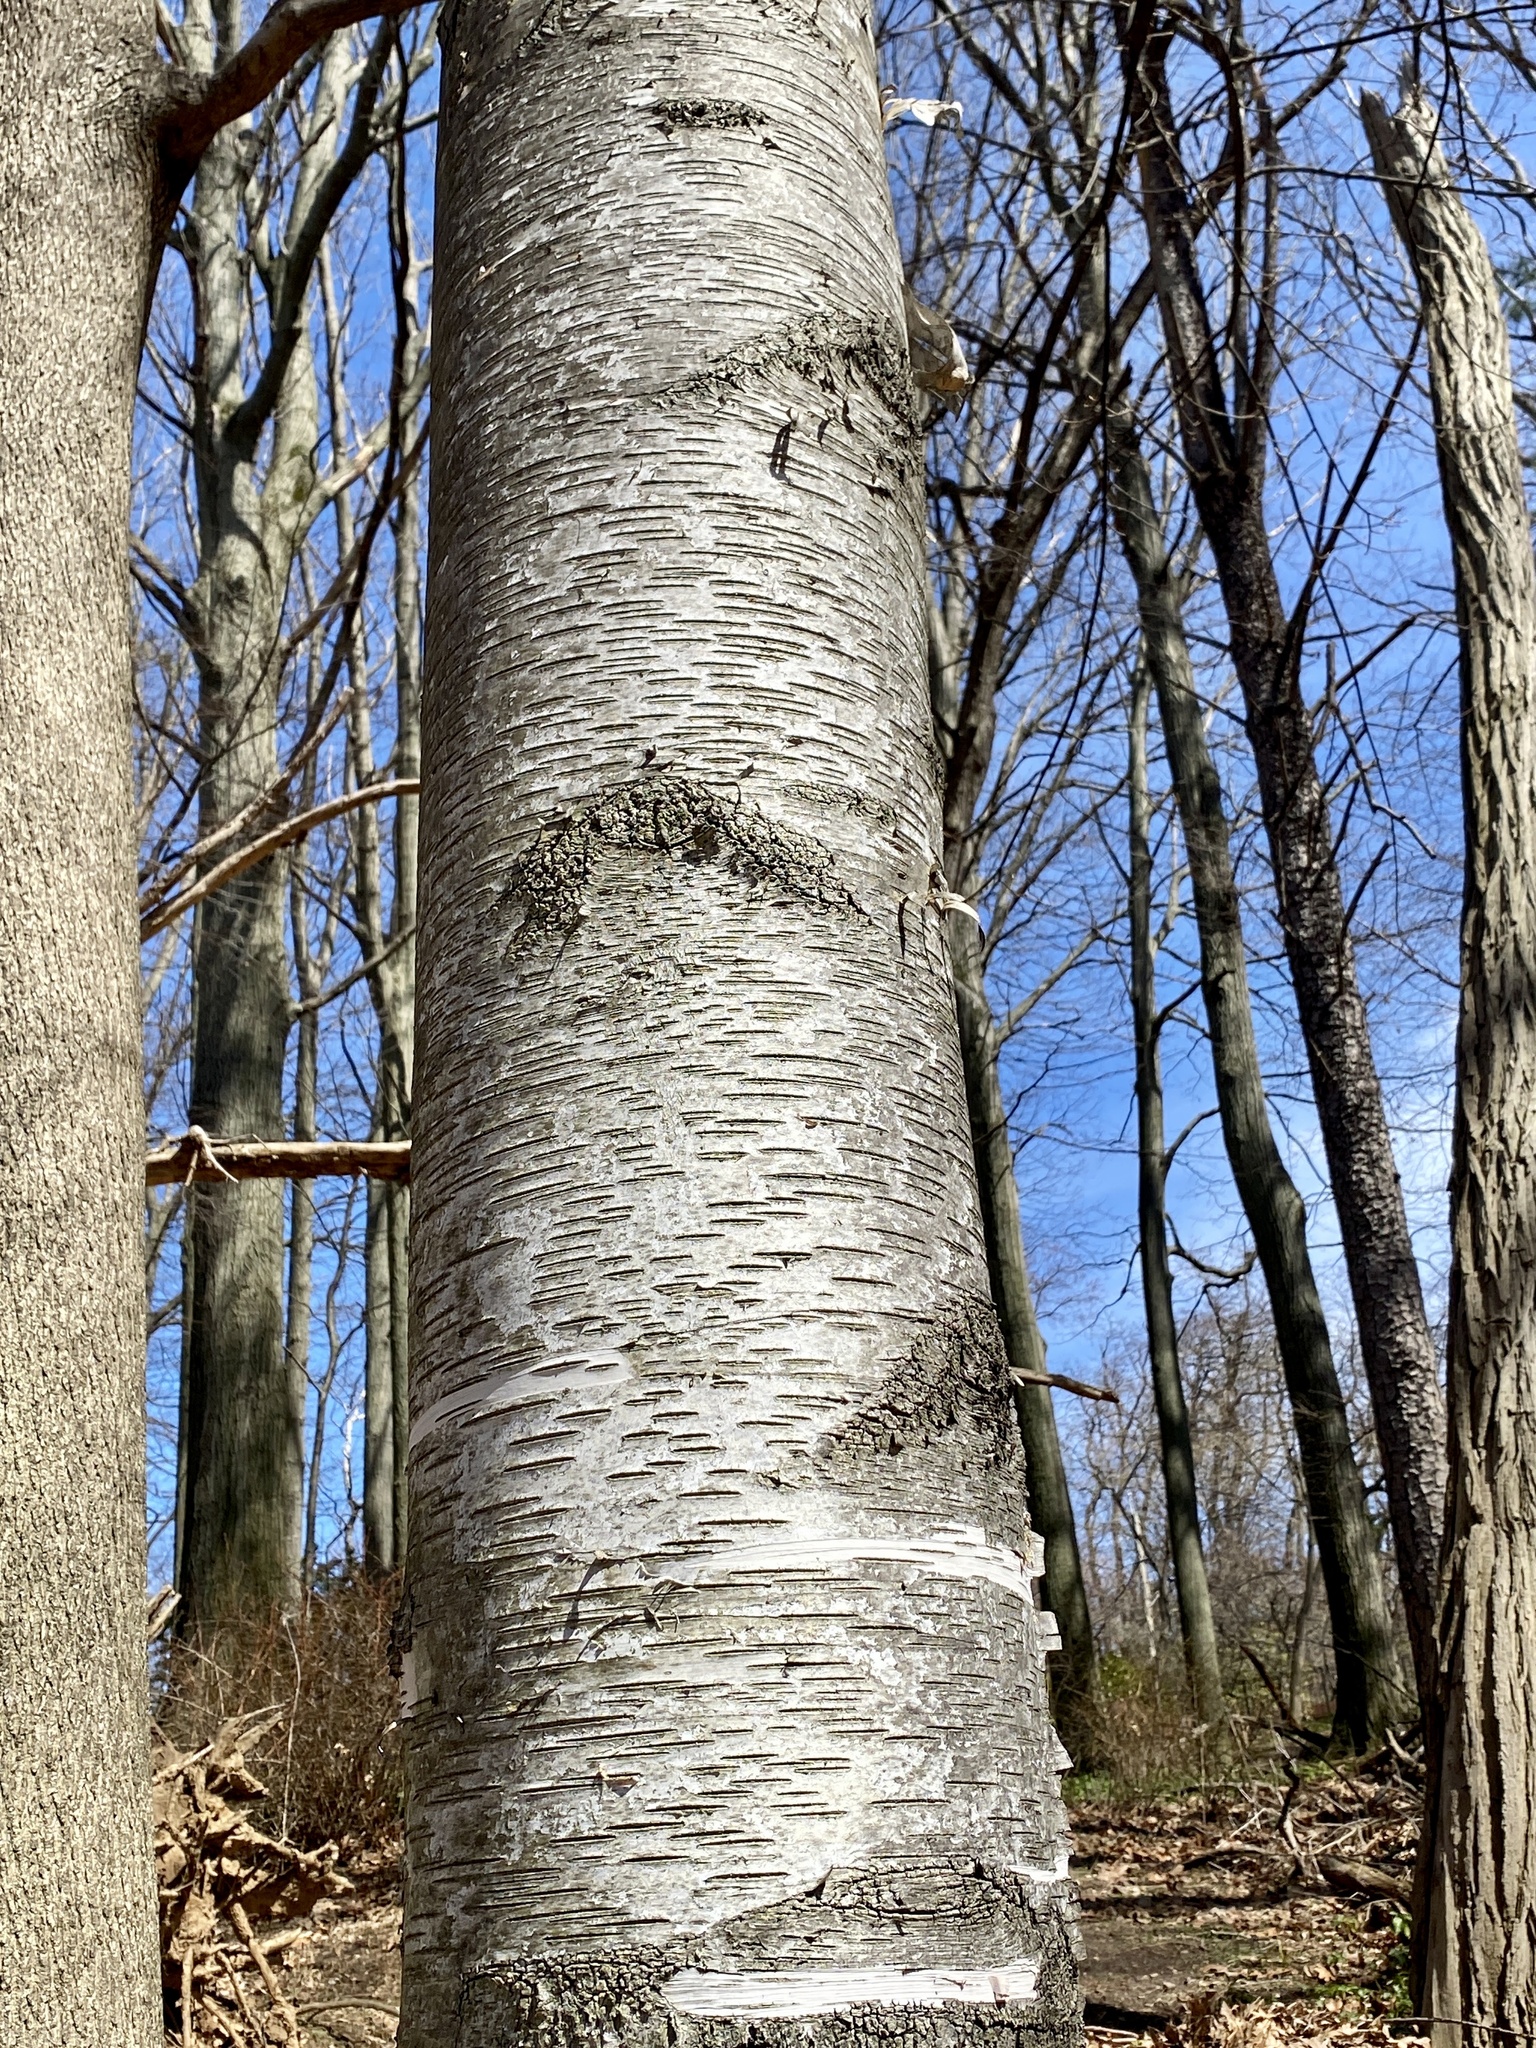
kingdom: Plantae
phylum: Tracheophyta
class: Magnoliopsida
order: Fagales
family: Betulaceae
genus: Betula
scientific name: Betula papyrifera
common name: Paper birch
